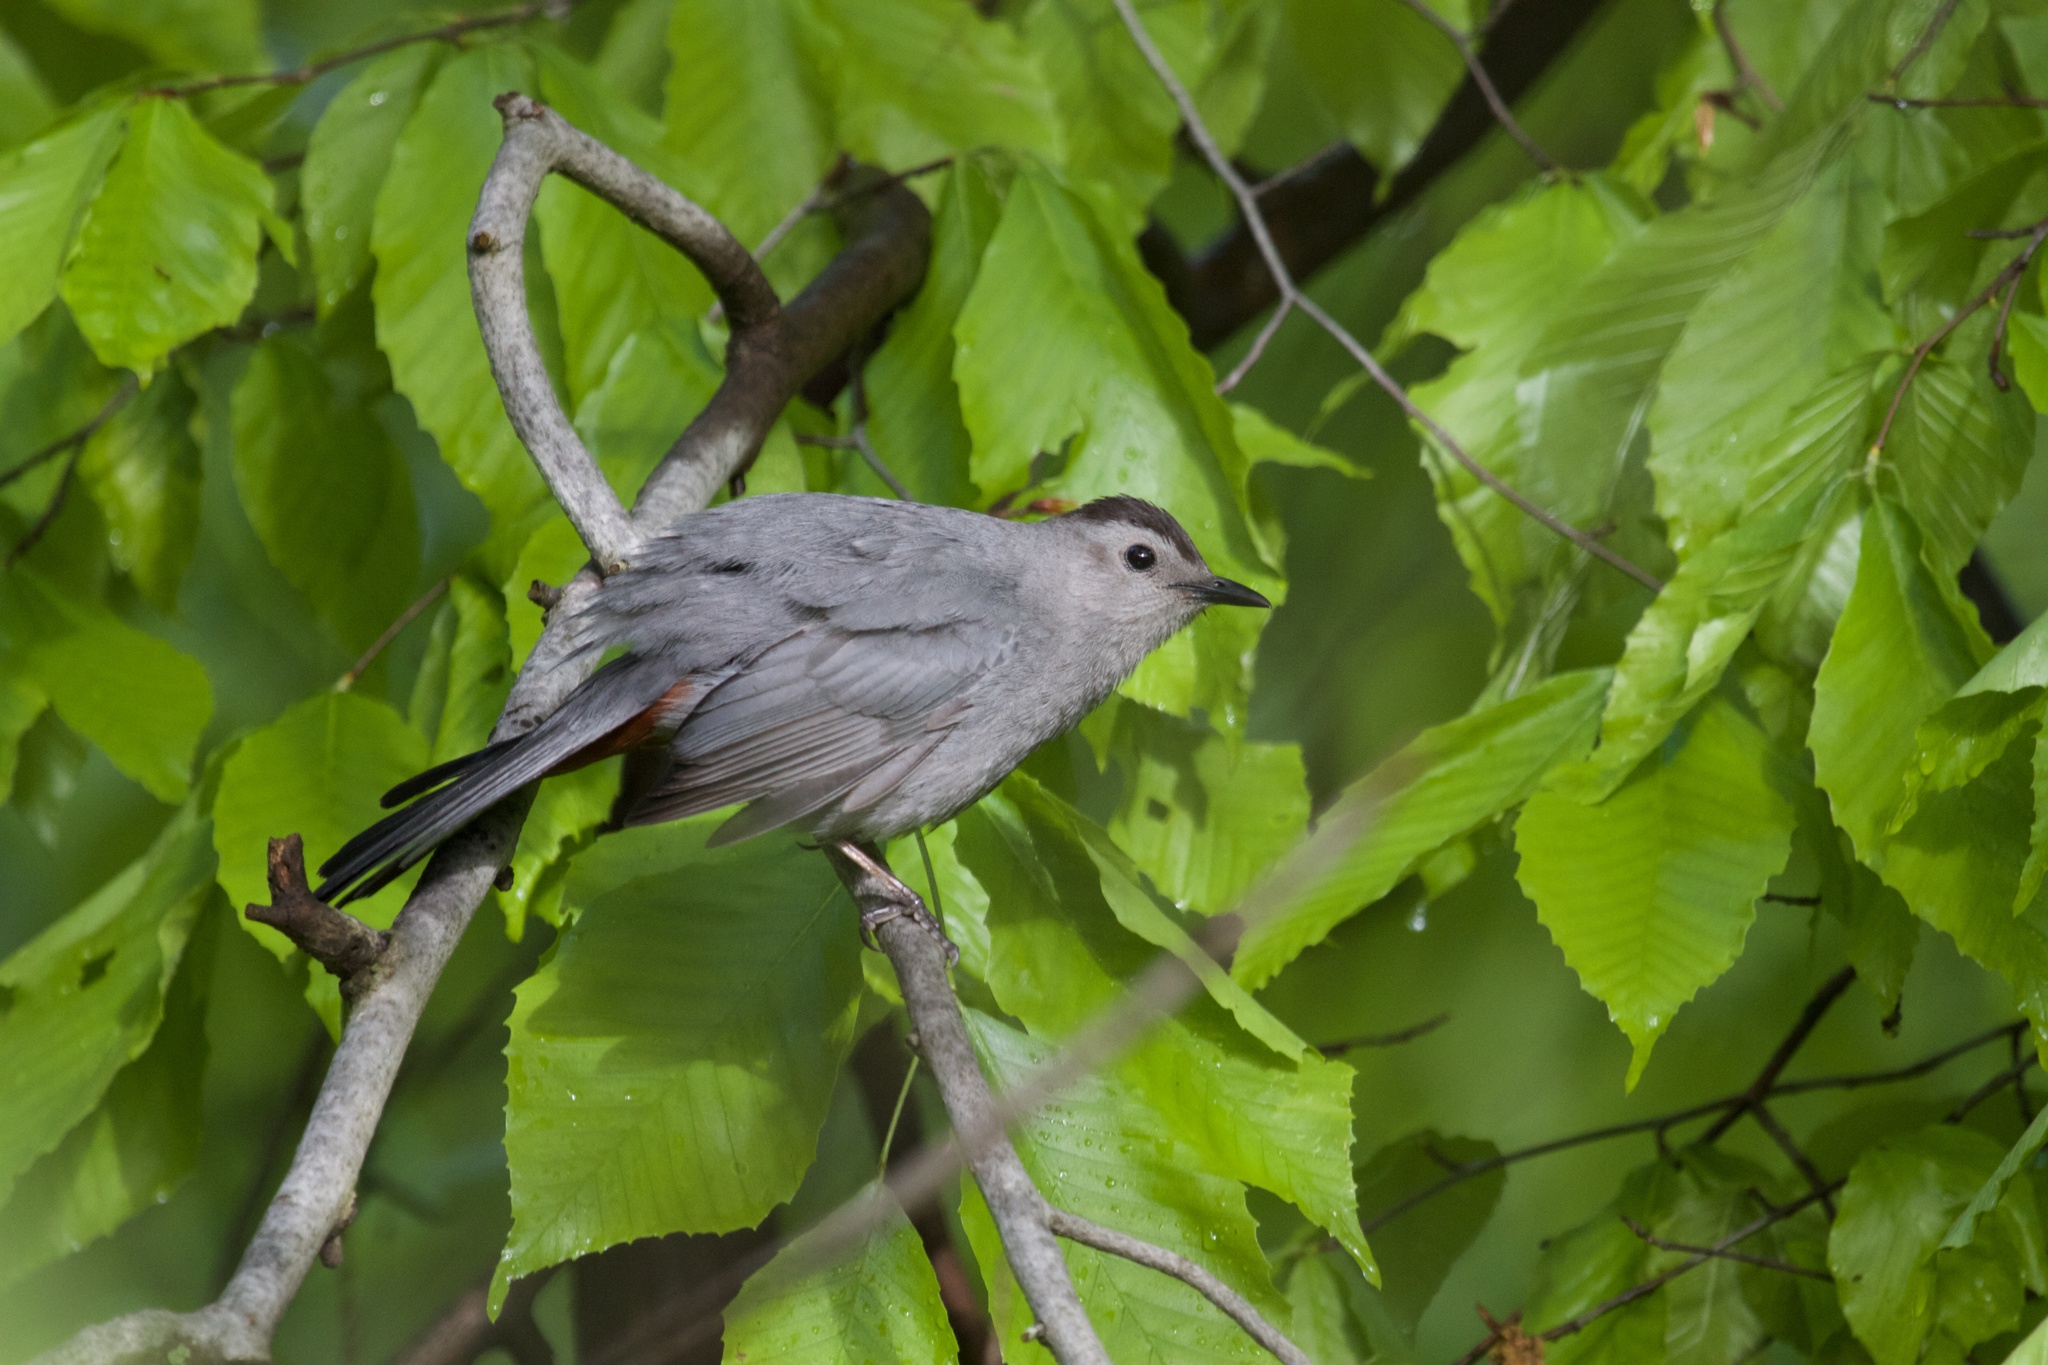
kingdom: Animalia
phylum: Chordata
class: Aves
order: Passeriformes
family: Mimidae
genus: Dumetella
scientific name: Dumetella carolinensis
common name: Gray catbird
